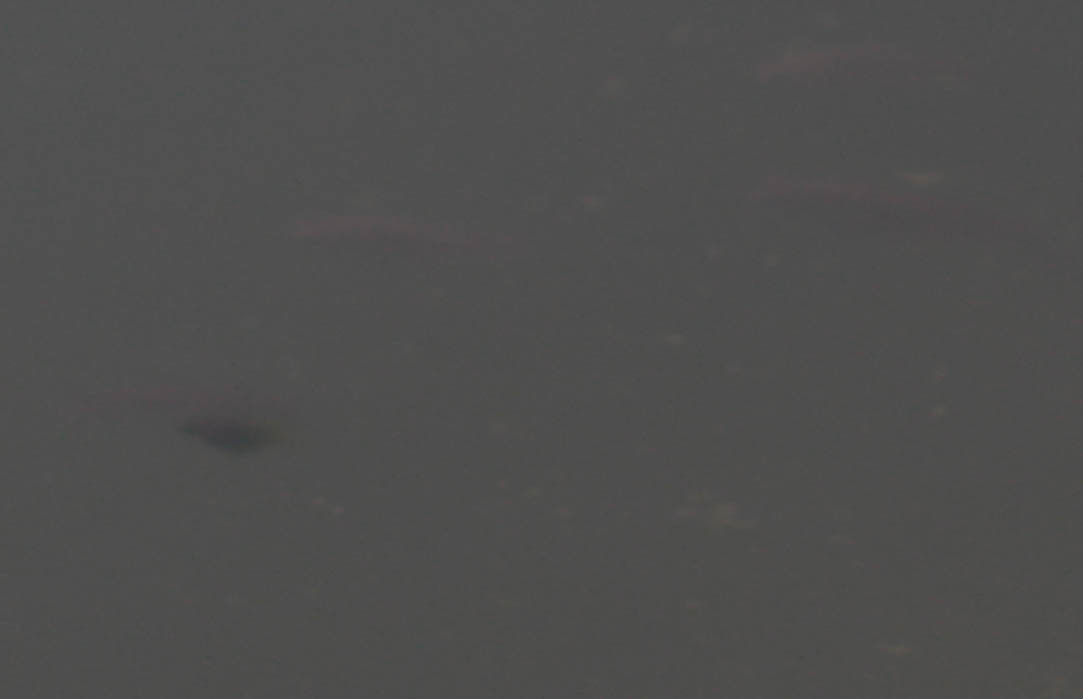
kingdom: Animalia
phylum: Chordata
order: Cyprinodontiformes
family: Poeciliidae
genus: Gambusia
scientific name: Gambusia affinis
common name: Mosquitofish
